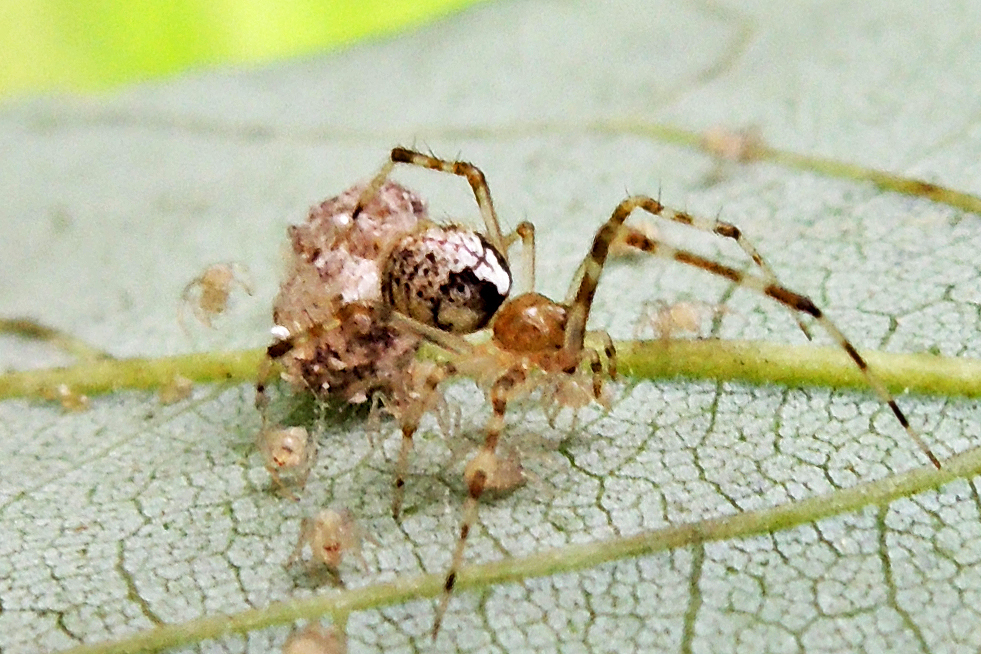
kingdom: Animalia
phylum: Arthropoda
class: Arachnida
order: Araneae
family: Theridiidae
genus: Yunohamella
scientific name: Yunohamella lyrica
